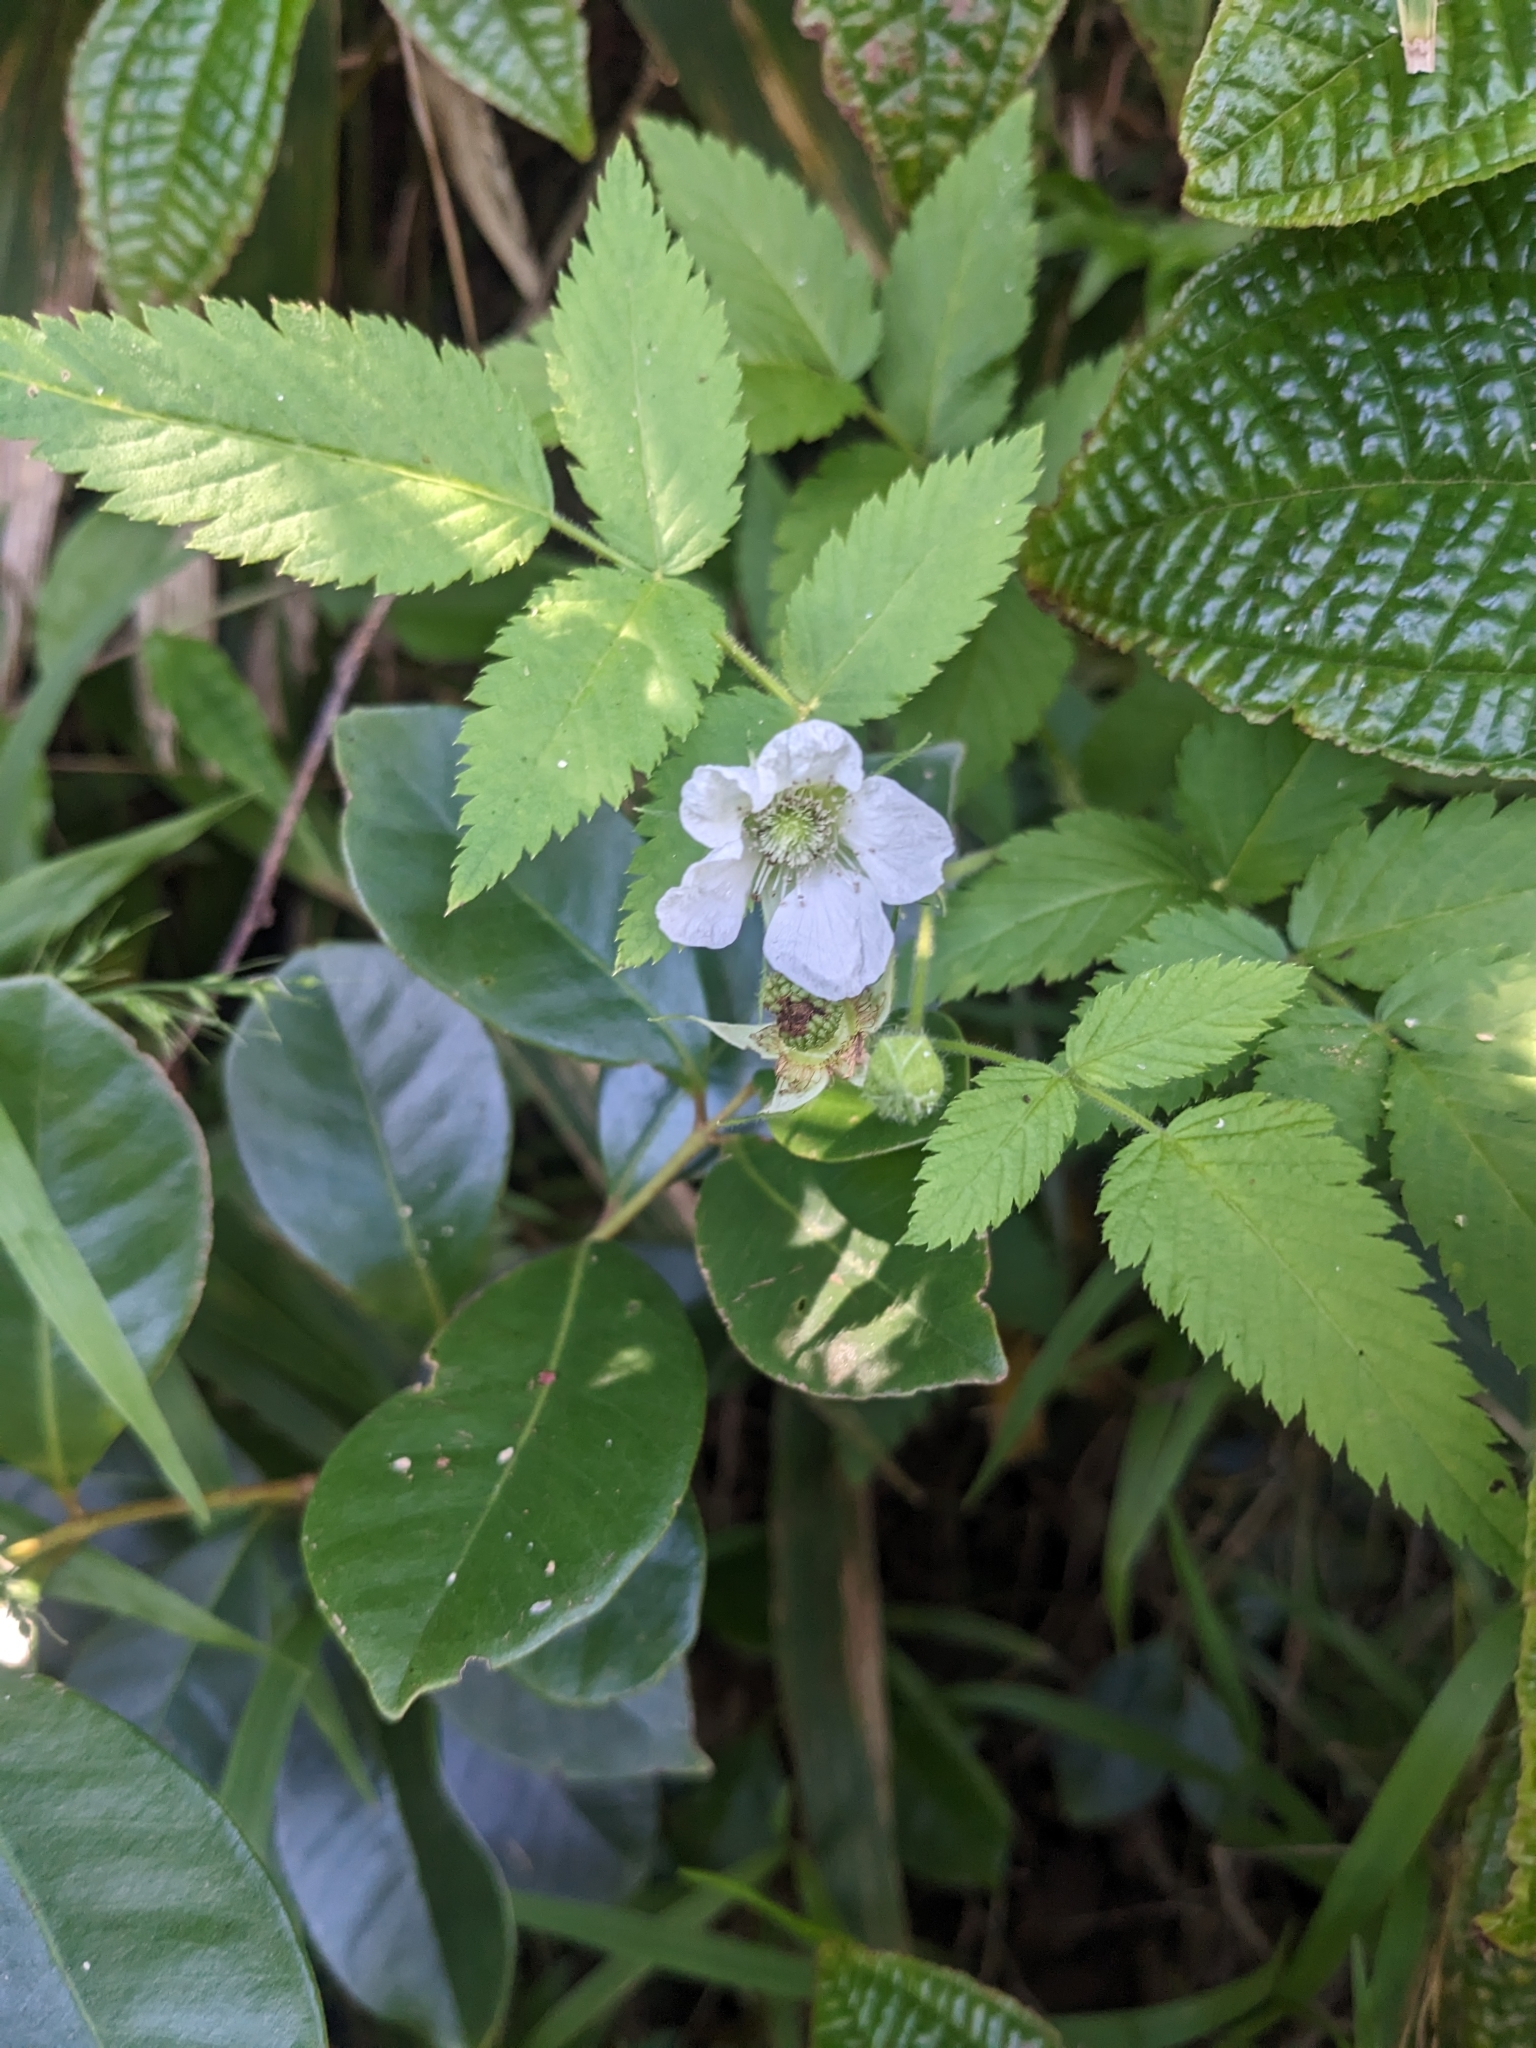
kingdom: Plantae
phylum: Tracheophyta
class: Magnoliopsida
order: Rosales
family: Rosaceae
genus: Rubus
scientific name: Rubus rosifolius
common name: Roseleaf raspberry
